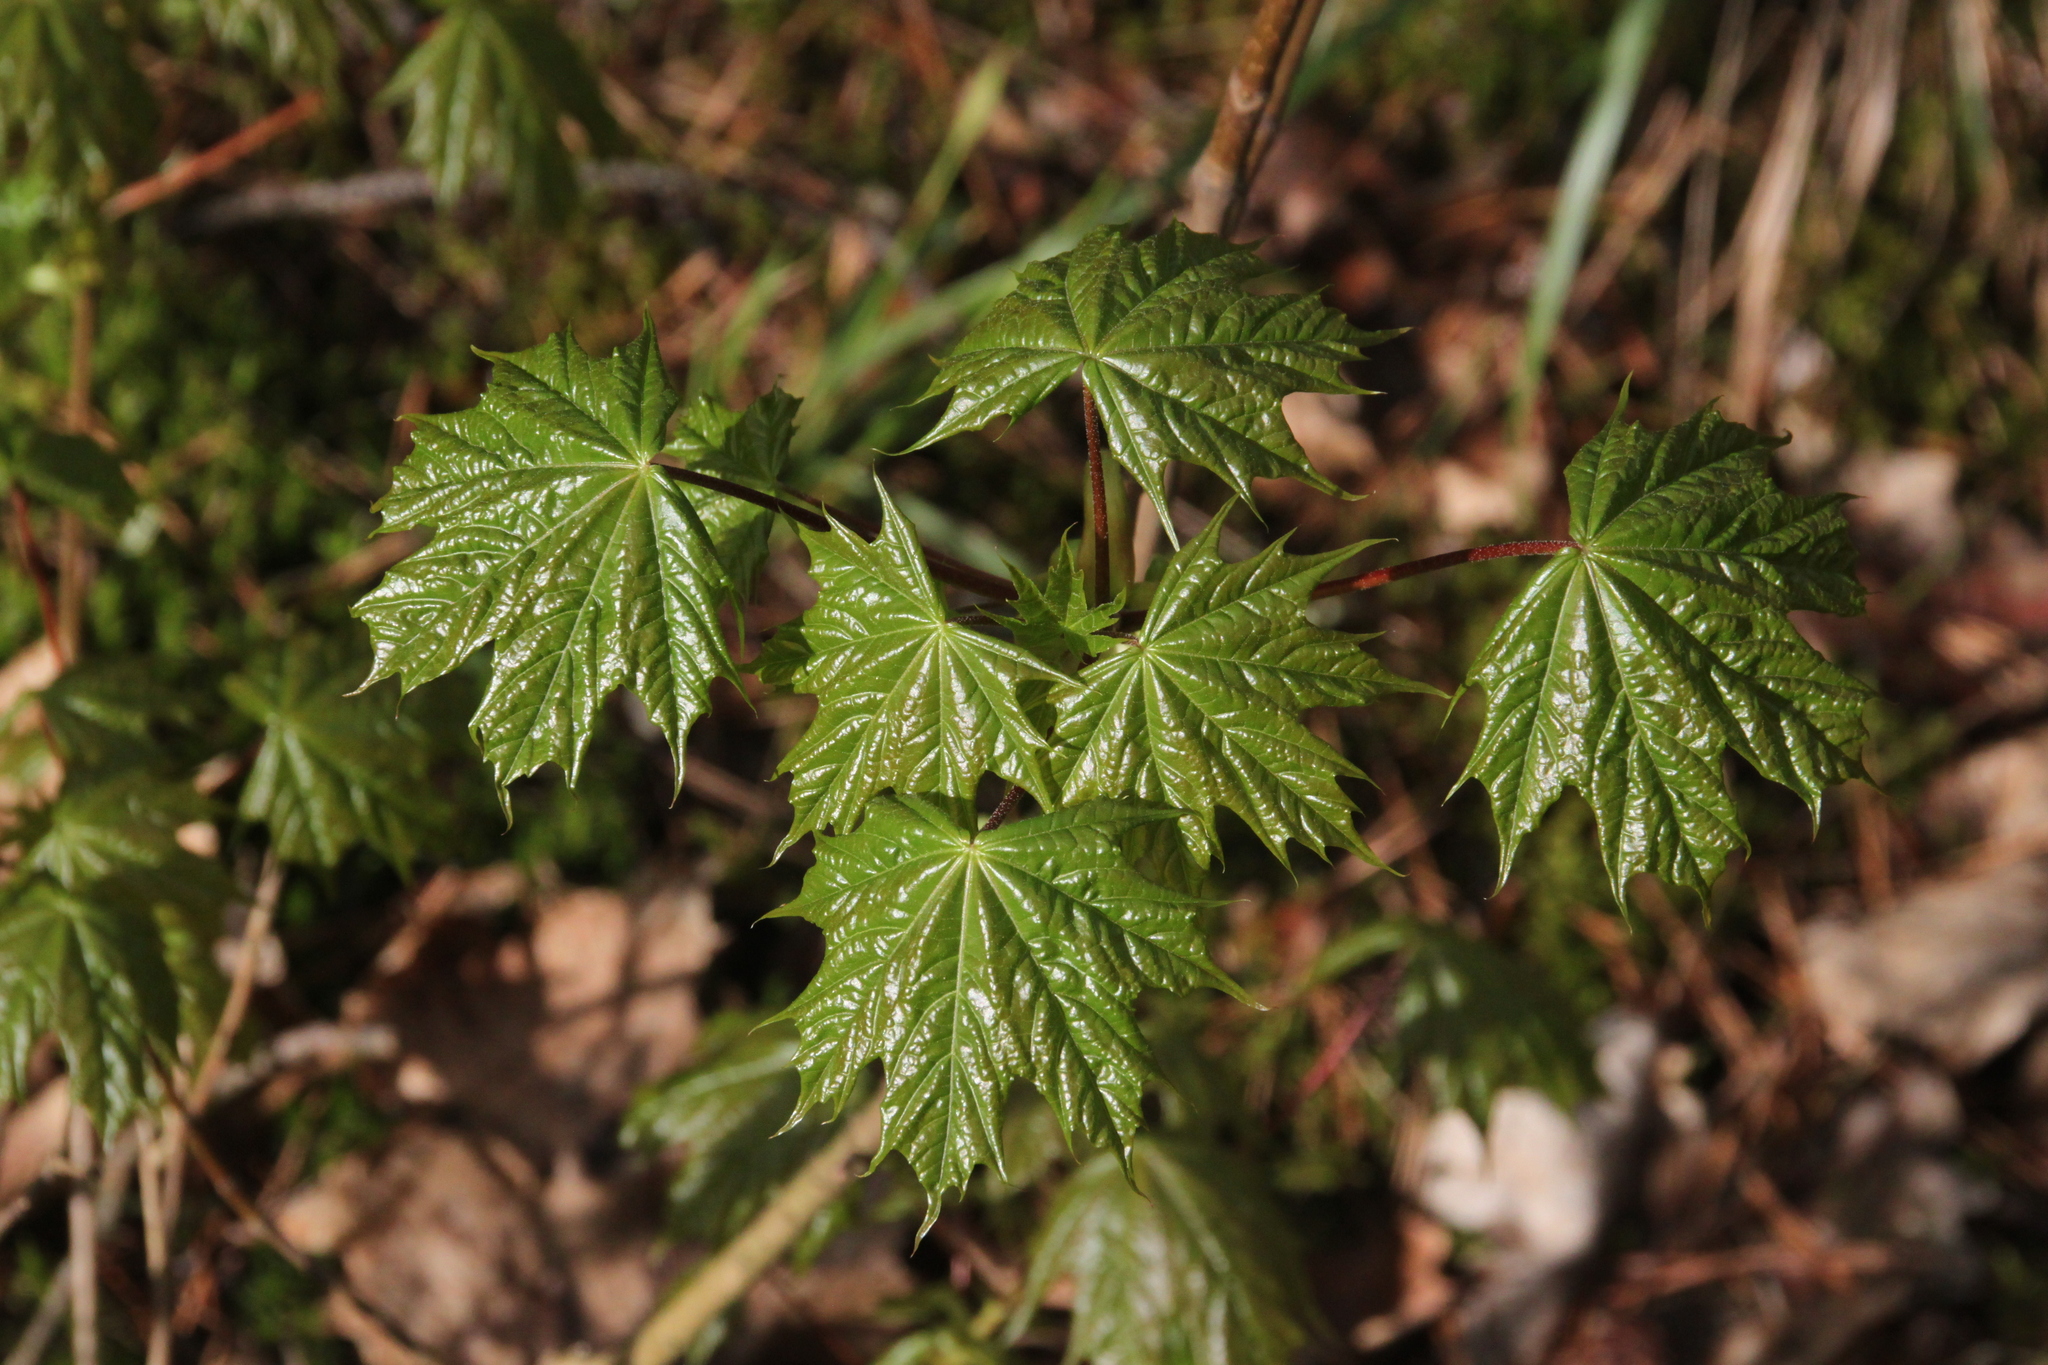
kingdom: Plantae
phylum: Tracheophyta
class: Magnoliopsida
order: Sapindales
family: Sapindaceae
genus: Acer
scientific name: Acer platanoides
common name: Norway maple
